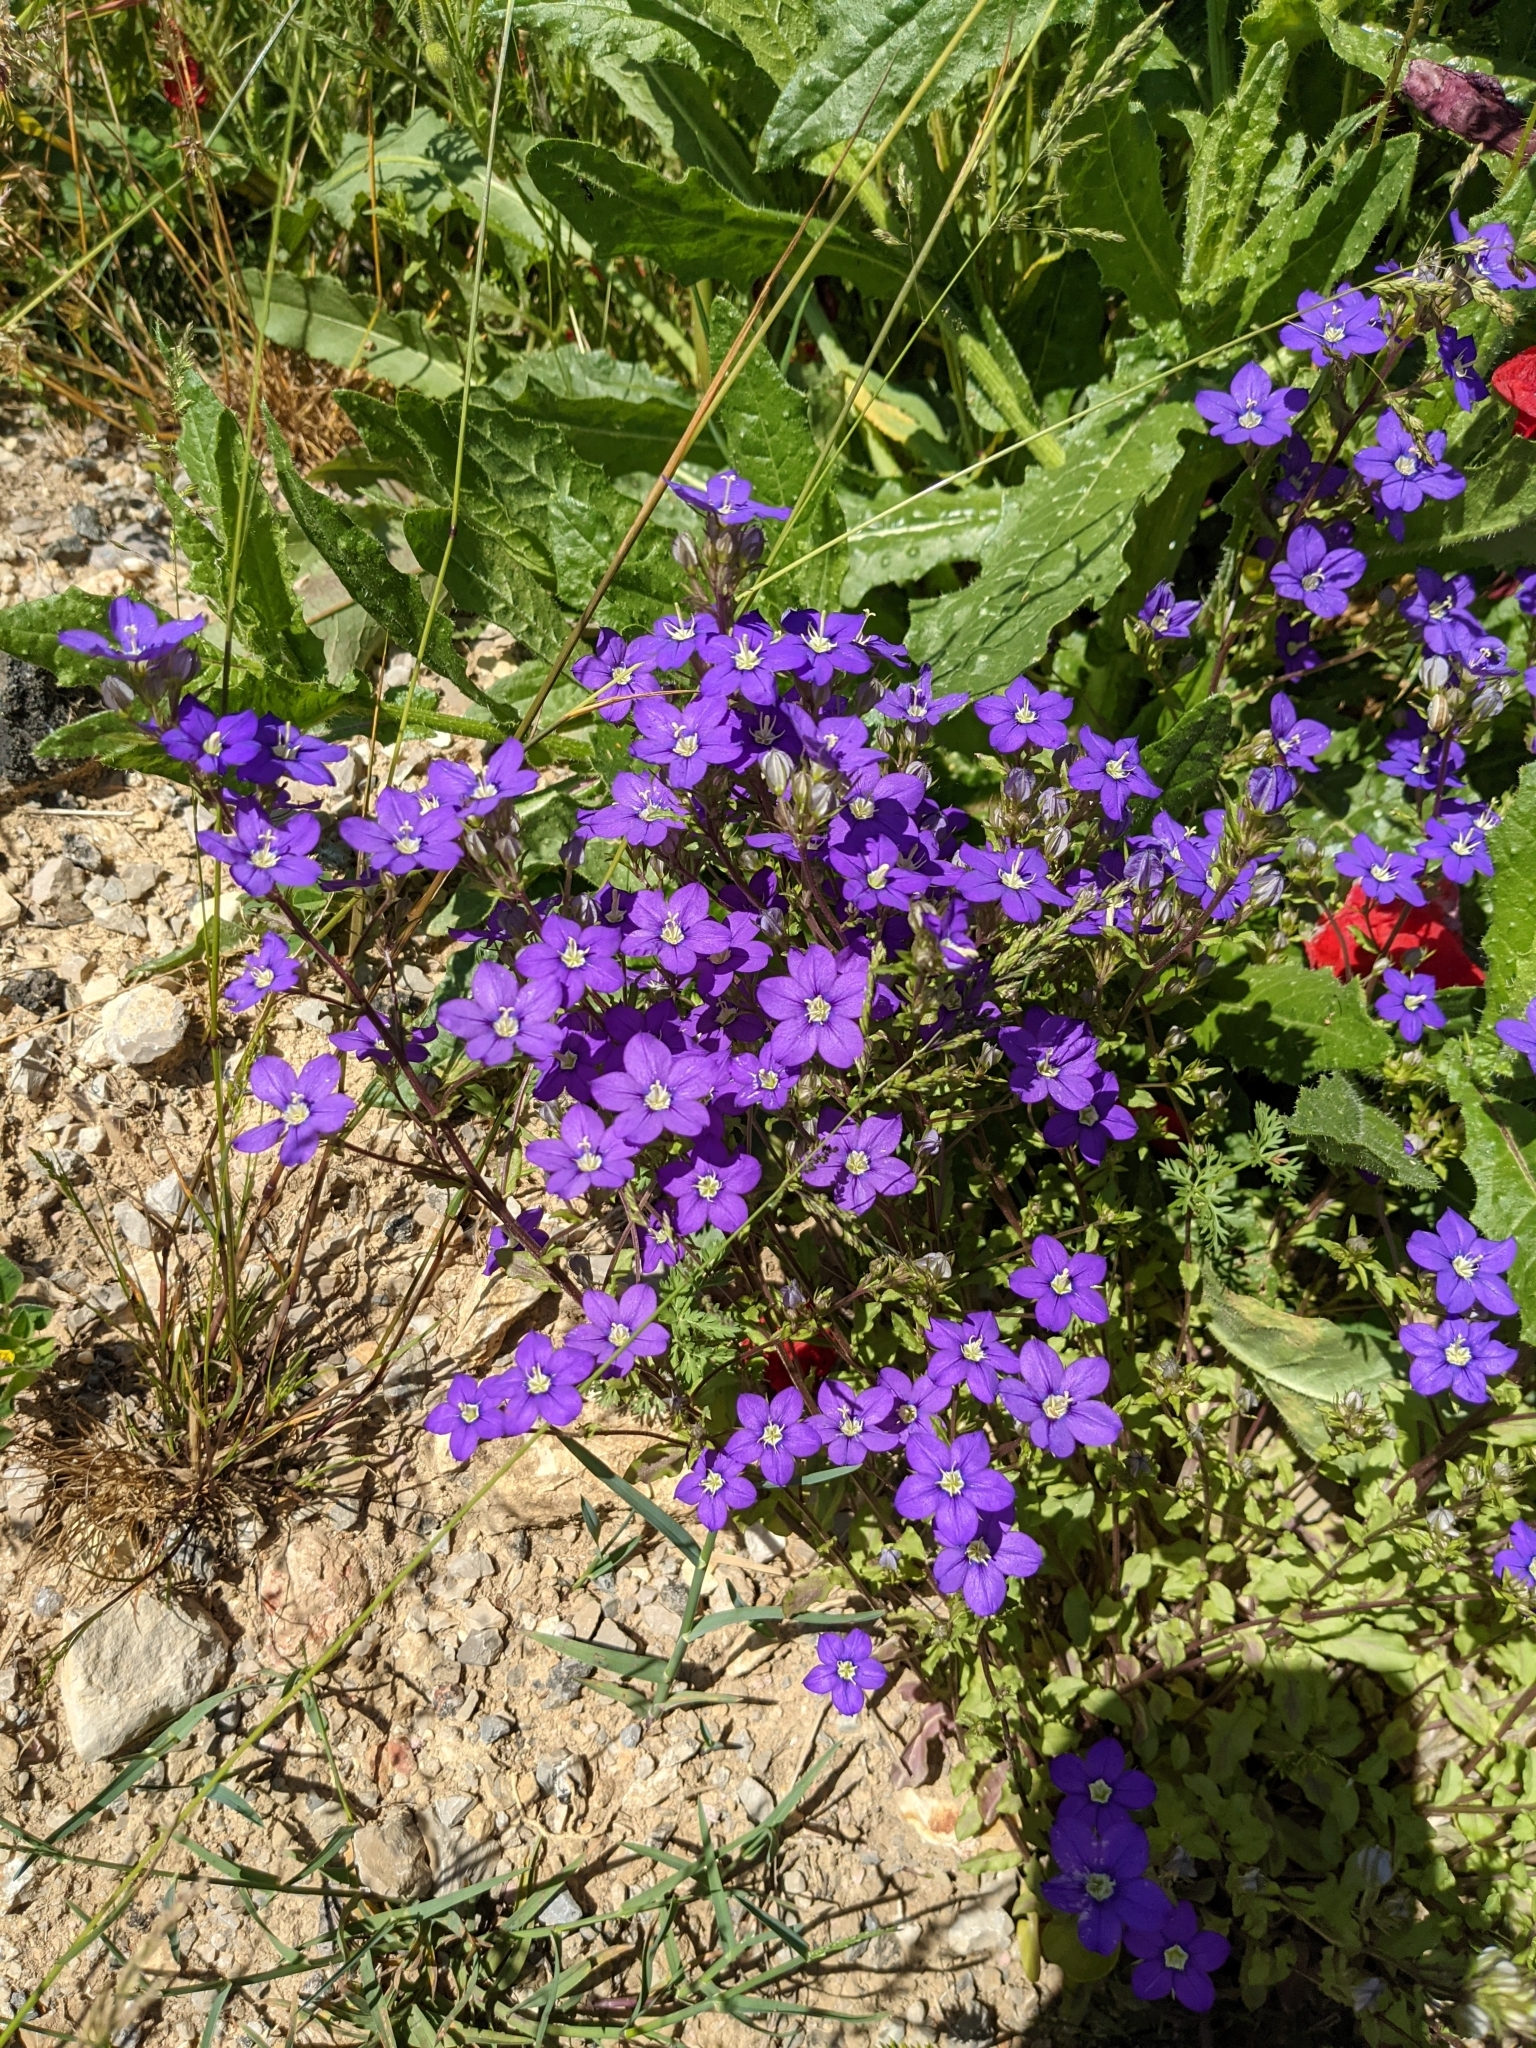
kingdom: Plantae
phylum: Tracheophyta
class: Magnoliopsida
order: Asterales
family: Campanulaceae
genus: Legousia
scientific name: Legousia speculum-veneris
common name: Large venus's-looking-glass
